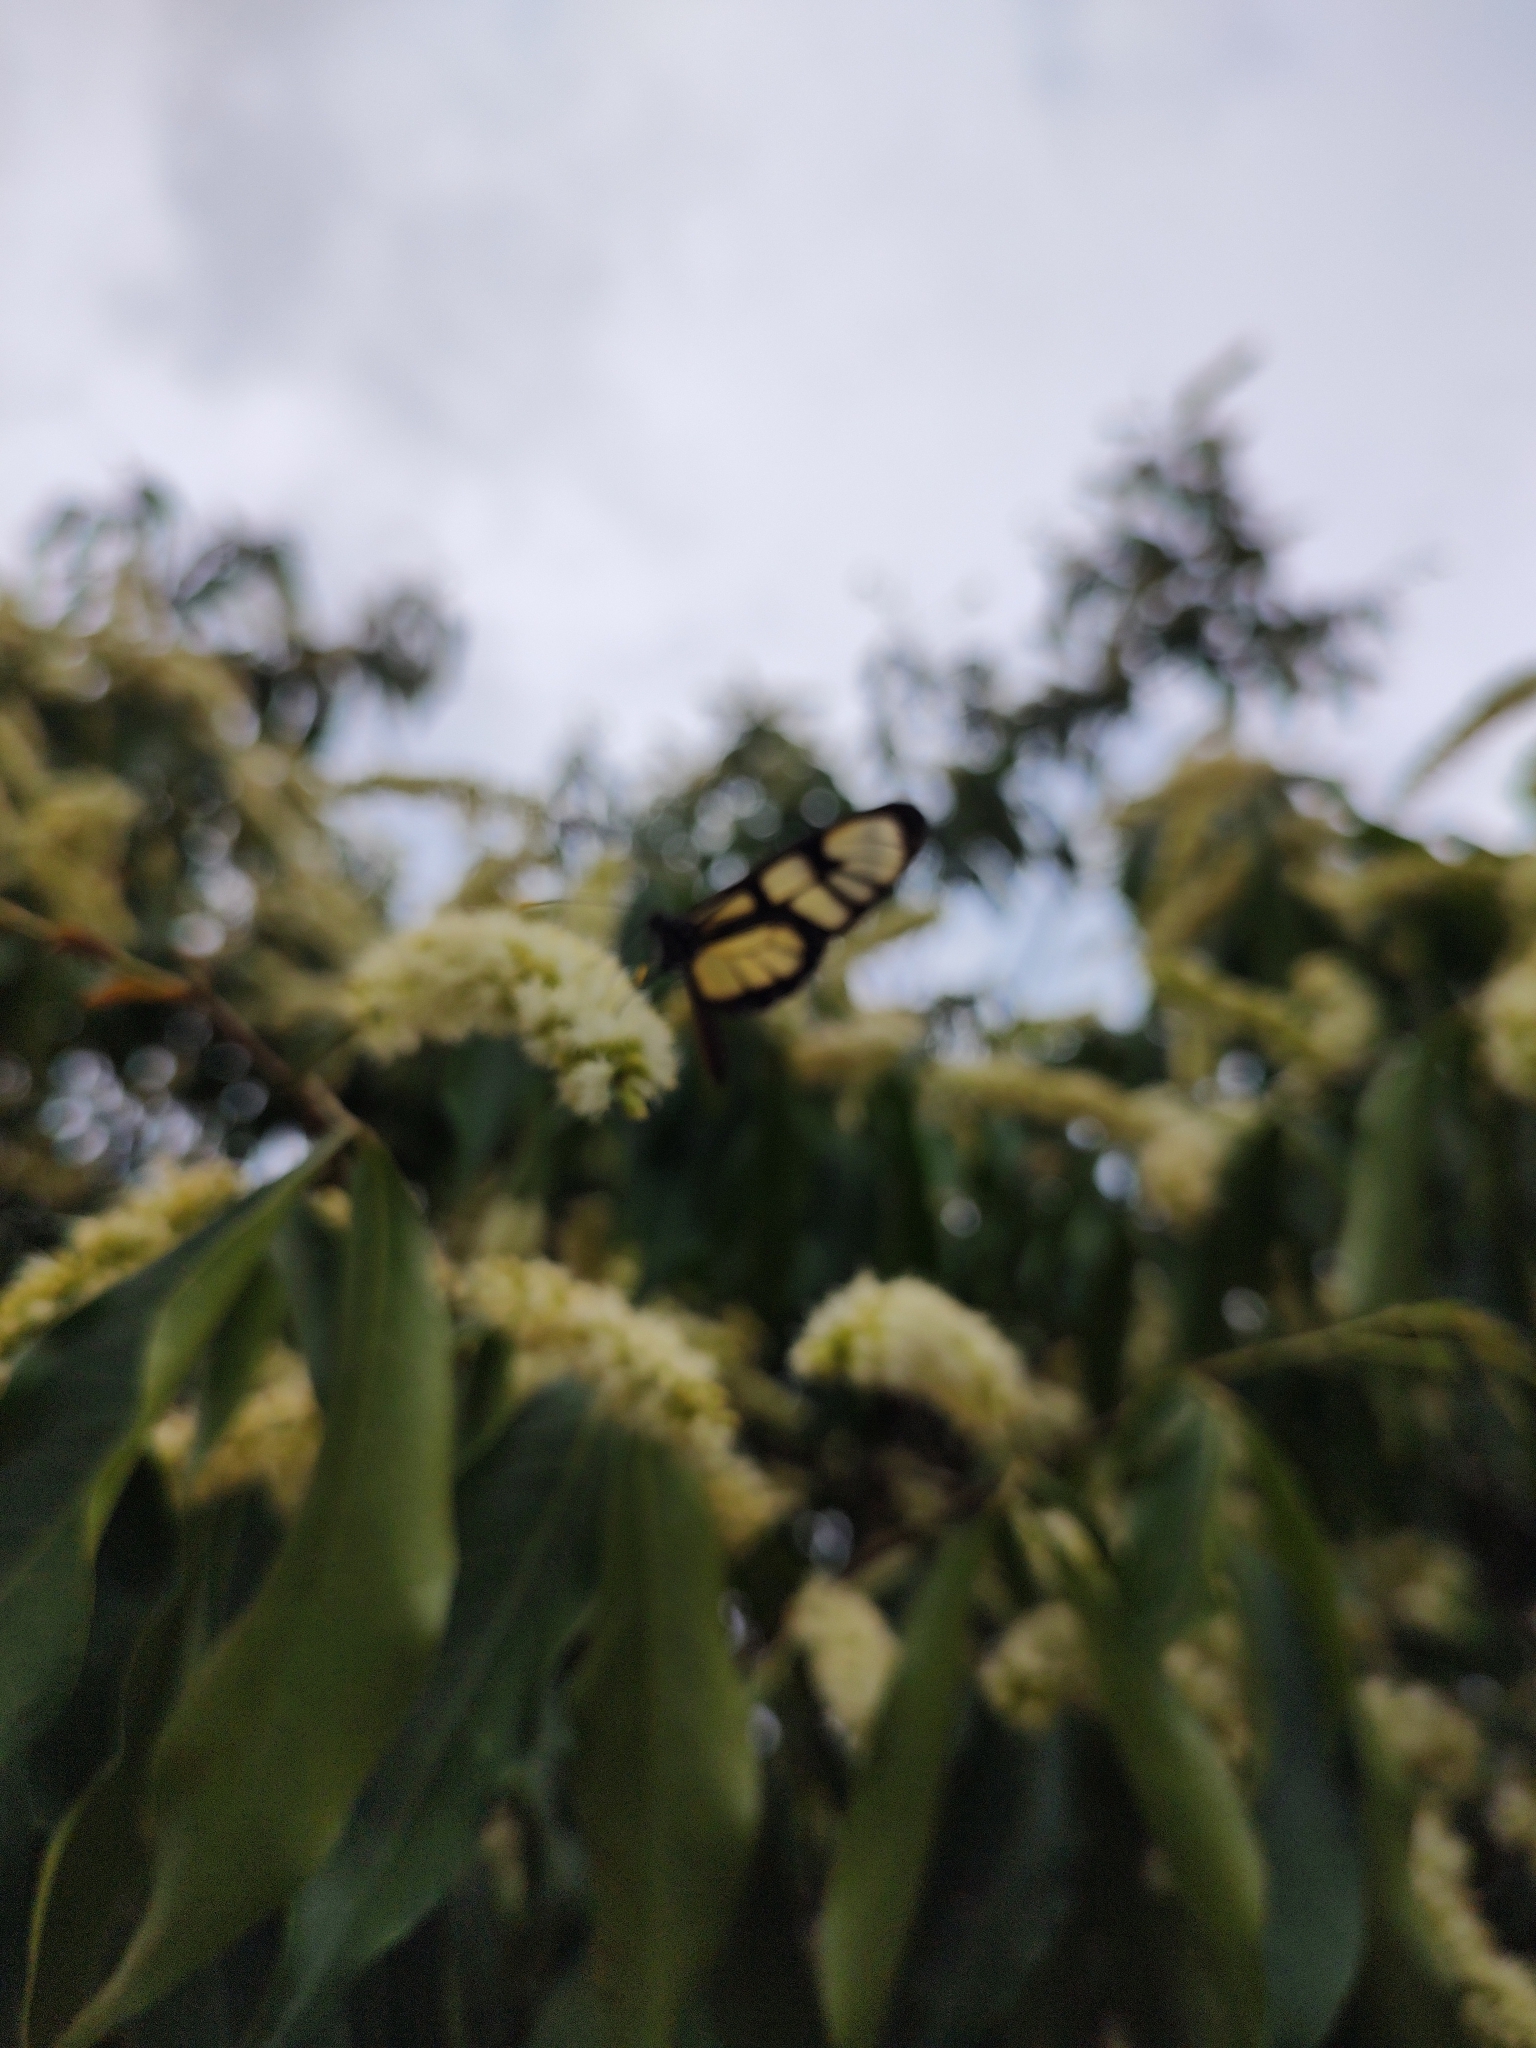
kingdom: Animalia
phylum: Arthropoda
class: Insecta
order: Lepidoptera
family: Nymphalidae
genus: Dircenna
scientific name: Dircenna dero
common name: Dero clearwing
